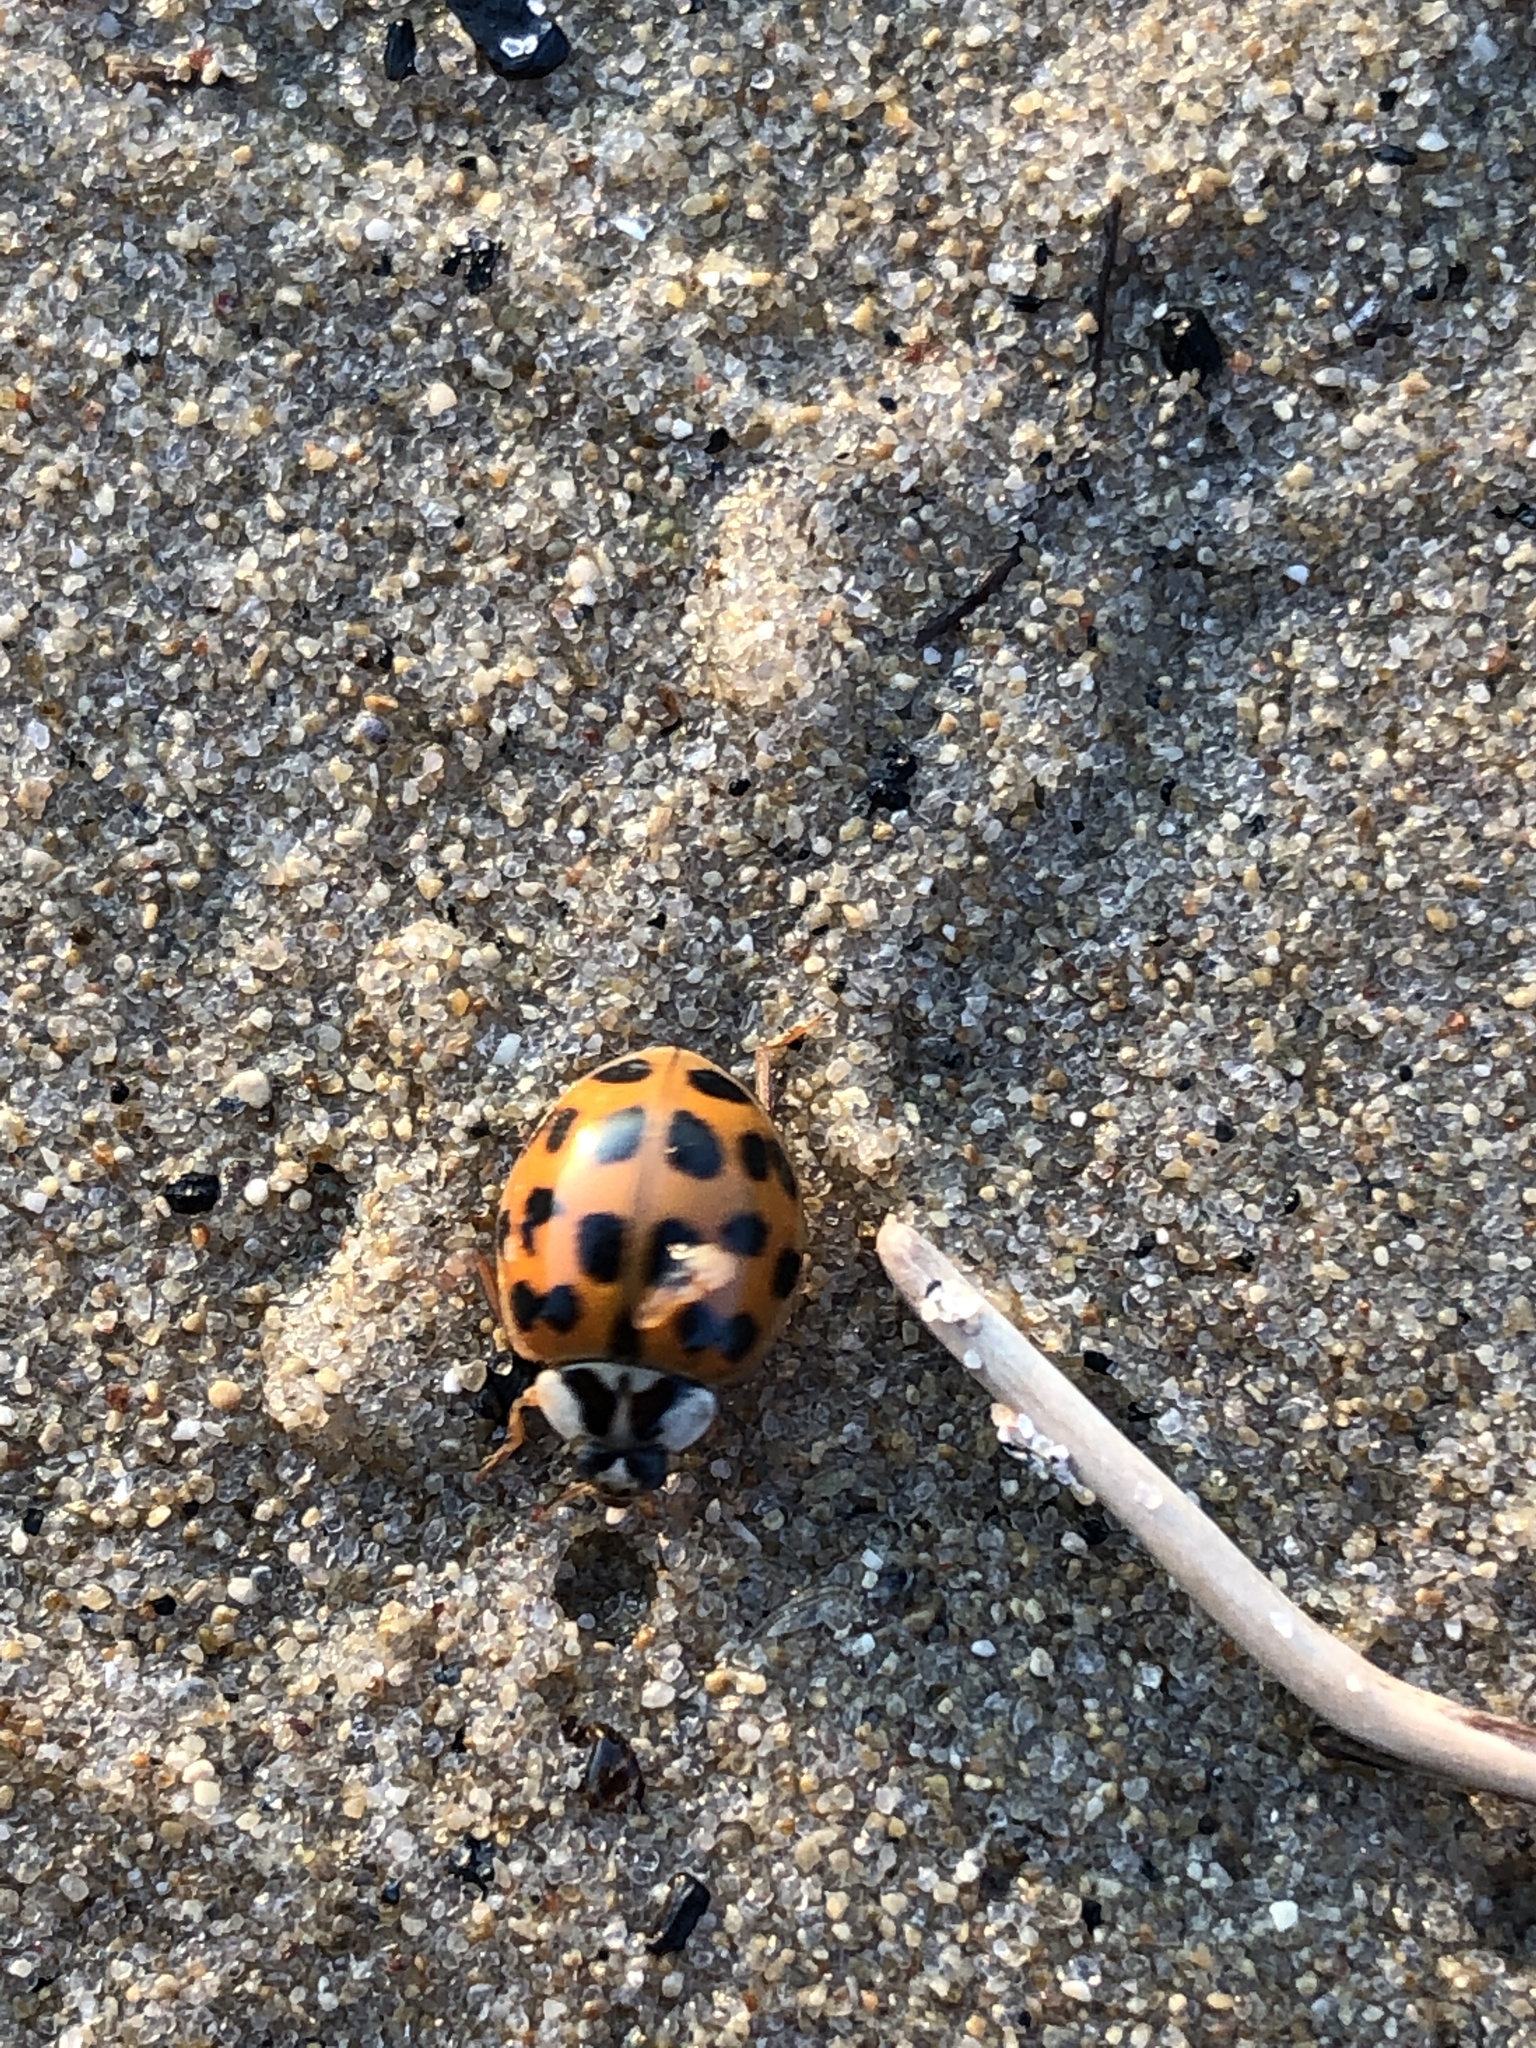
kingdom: Animalia
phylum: Arthropoda
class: Insecta
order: Coleoptera
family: Coccinellidae
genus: Harmonia
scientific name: Harmonia axyridis
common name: Harlequin ladybird
